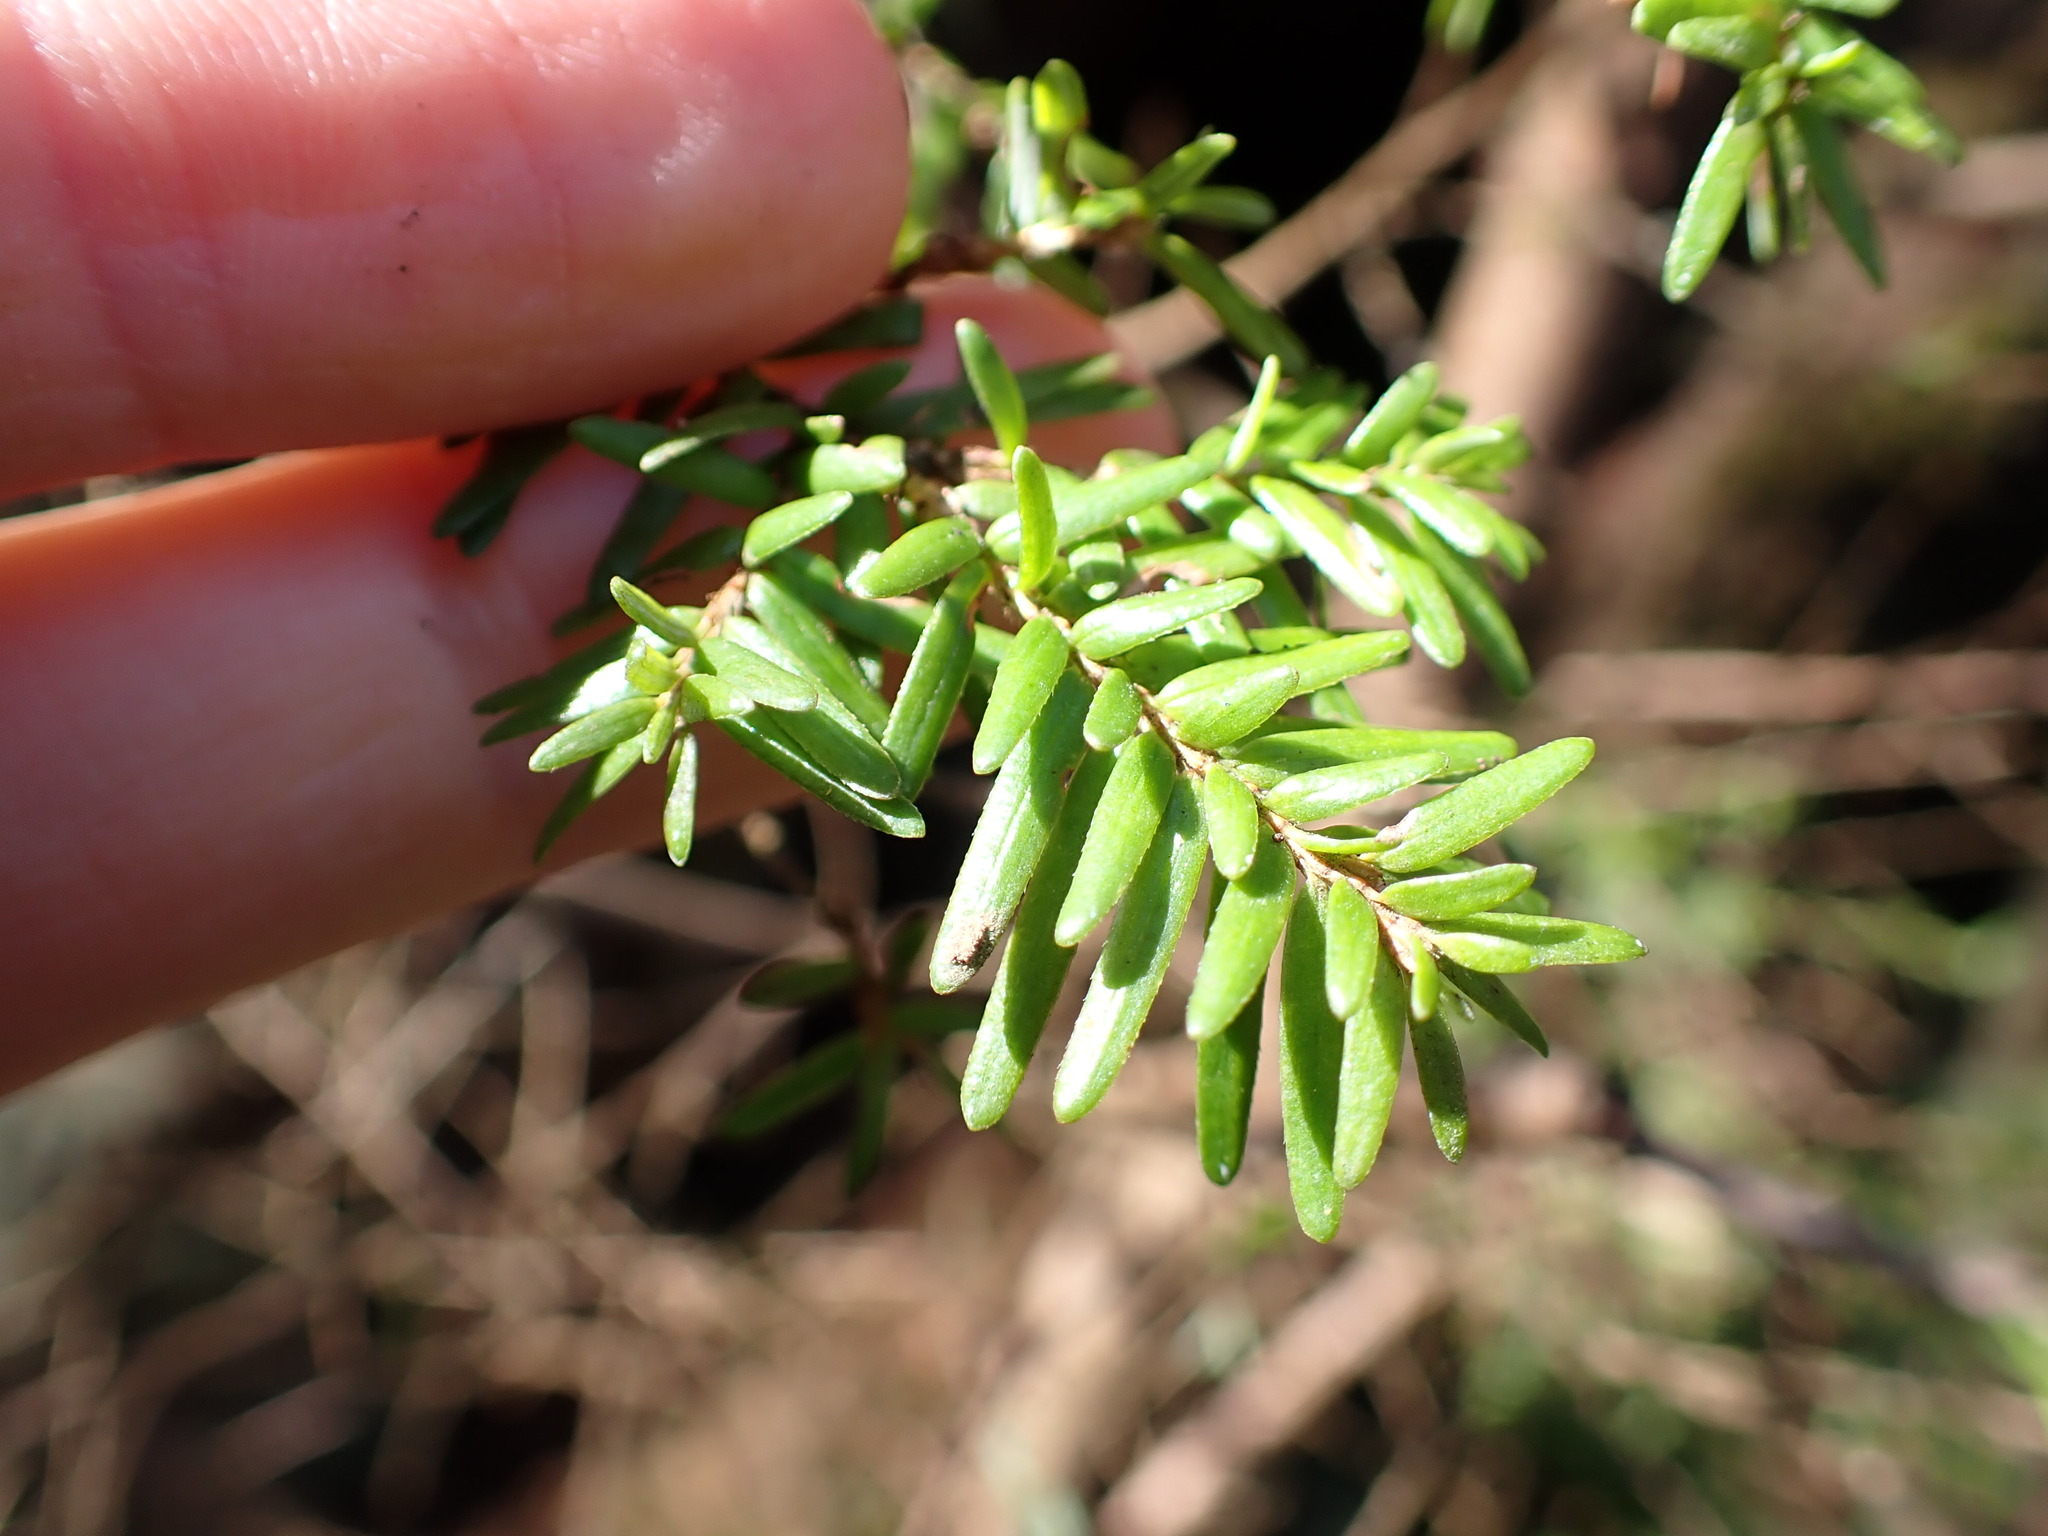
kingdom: Plantae
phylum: Tracheophyta
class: Pinopsida
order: Pinales
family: Pinaceae
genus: Tsuga
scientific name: Tsuga heterophylla
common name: Western hemlock
